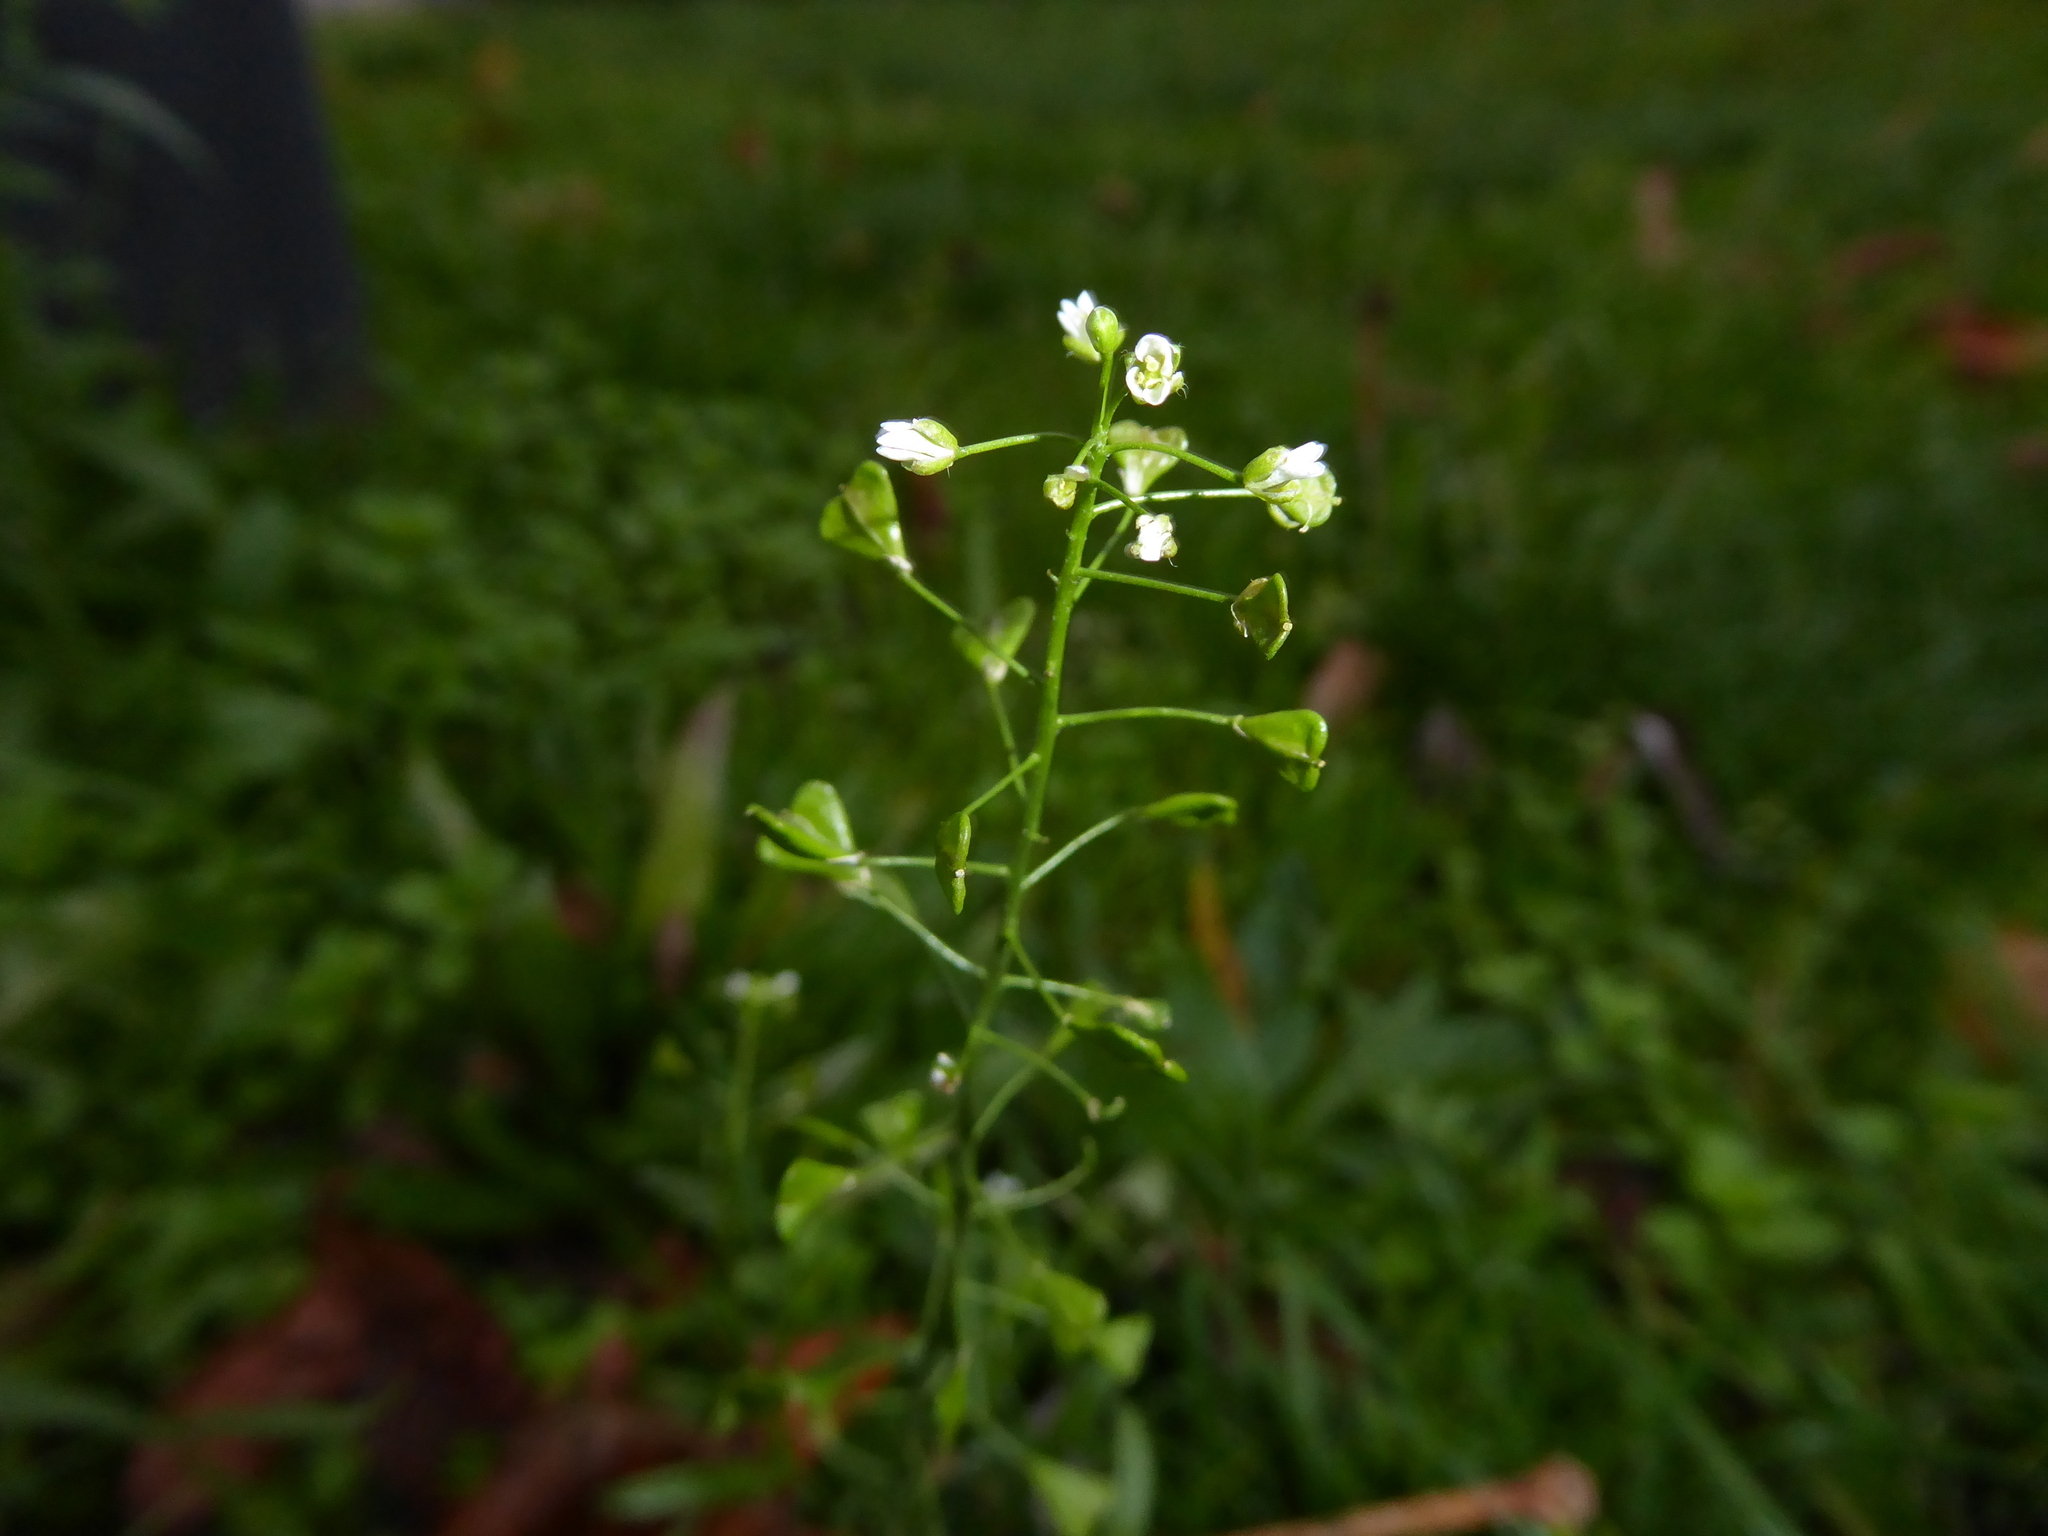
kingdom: Plantae
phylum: Tracheophyta
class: Magnoliopsida
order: Brassicales
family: Brassicaceae
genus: Capsella
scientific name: Capsella bursa-pastoris
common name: Shepherd's purse
